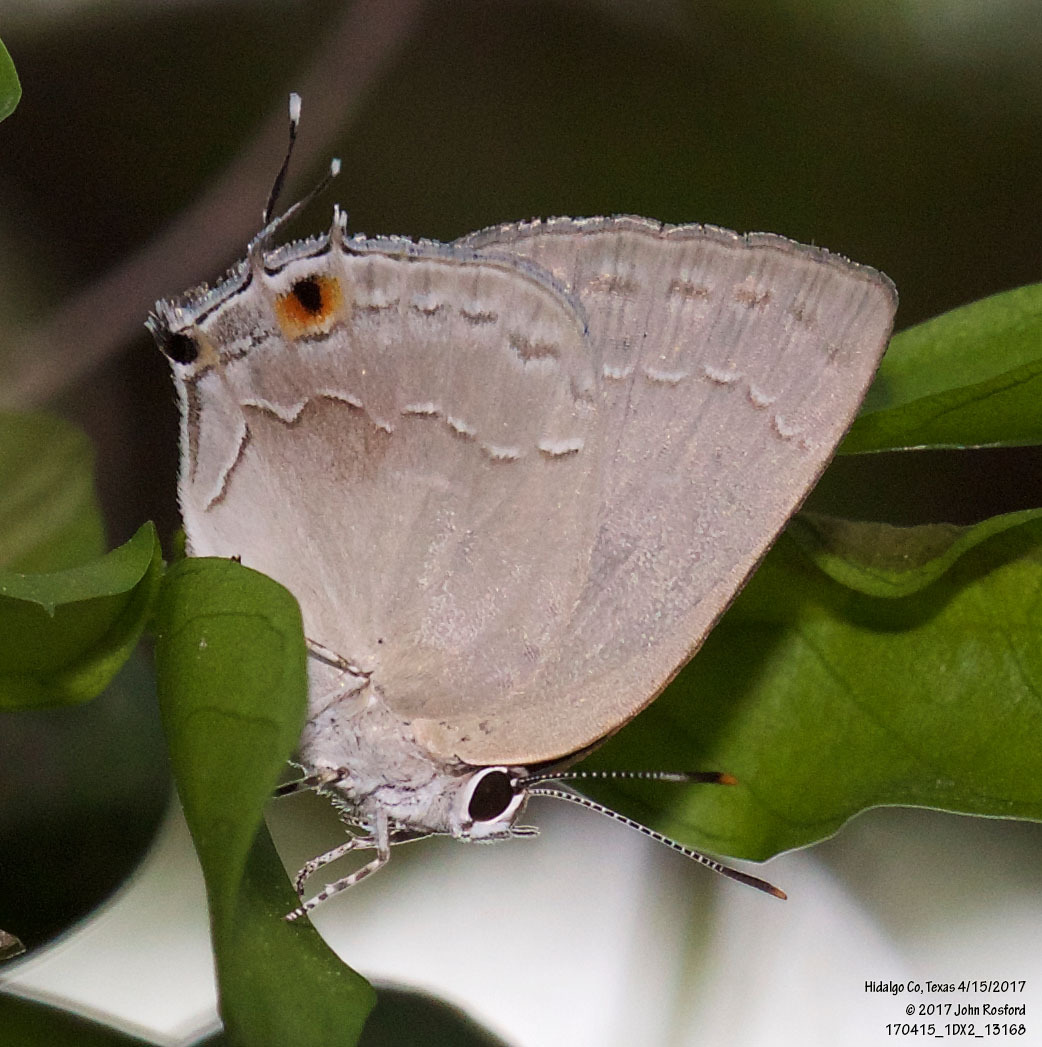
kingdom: Animalia
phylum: Arthropoda
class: Insecta
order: Lepidoptera
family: Lycaenidae
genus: Strephonota
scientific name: Strephonota tephraeus
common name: Pearly-gray hairstreak
